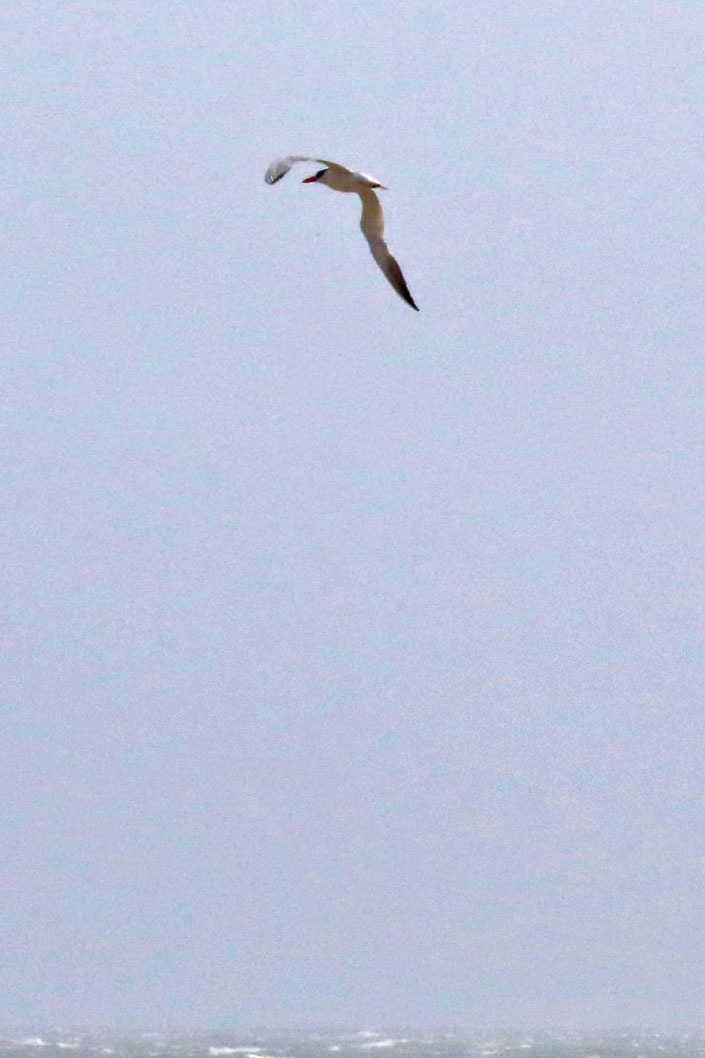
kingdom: Animalia
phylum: Chordata
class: Aves
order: Charadriiformes
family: Laridae
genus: Hydroprogne
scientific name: Hydroprogne caspia
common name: Caspian tern
